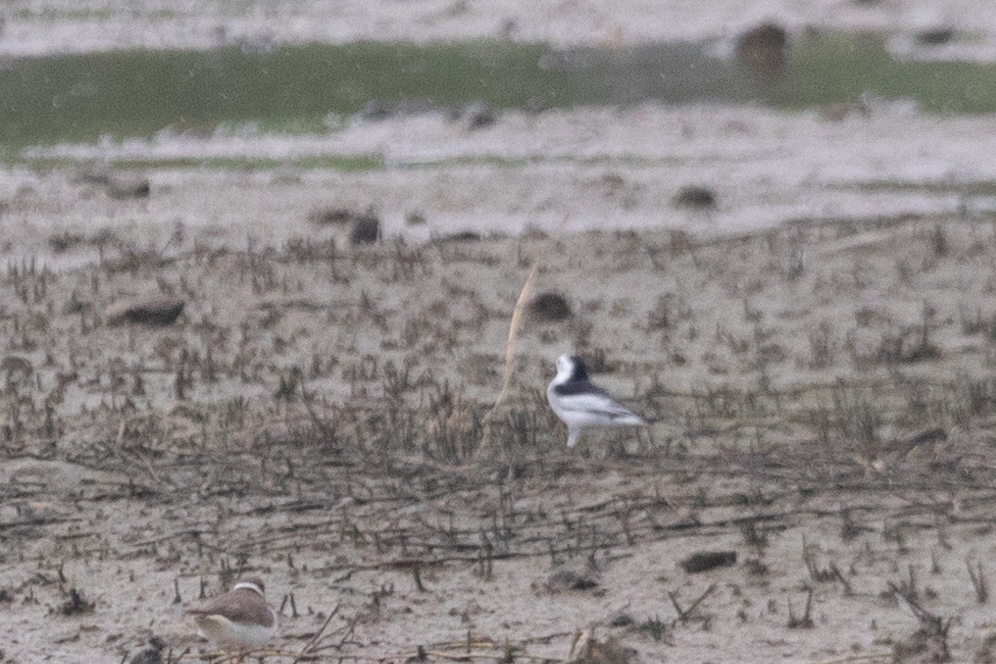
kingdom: Animalia
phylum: Chordata
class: Aves
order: Passeriformes
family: Motacillidae
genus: Motacilla
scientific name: Motacilla alba
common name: White wagtail
